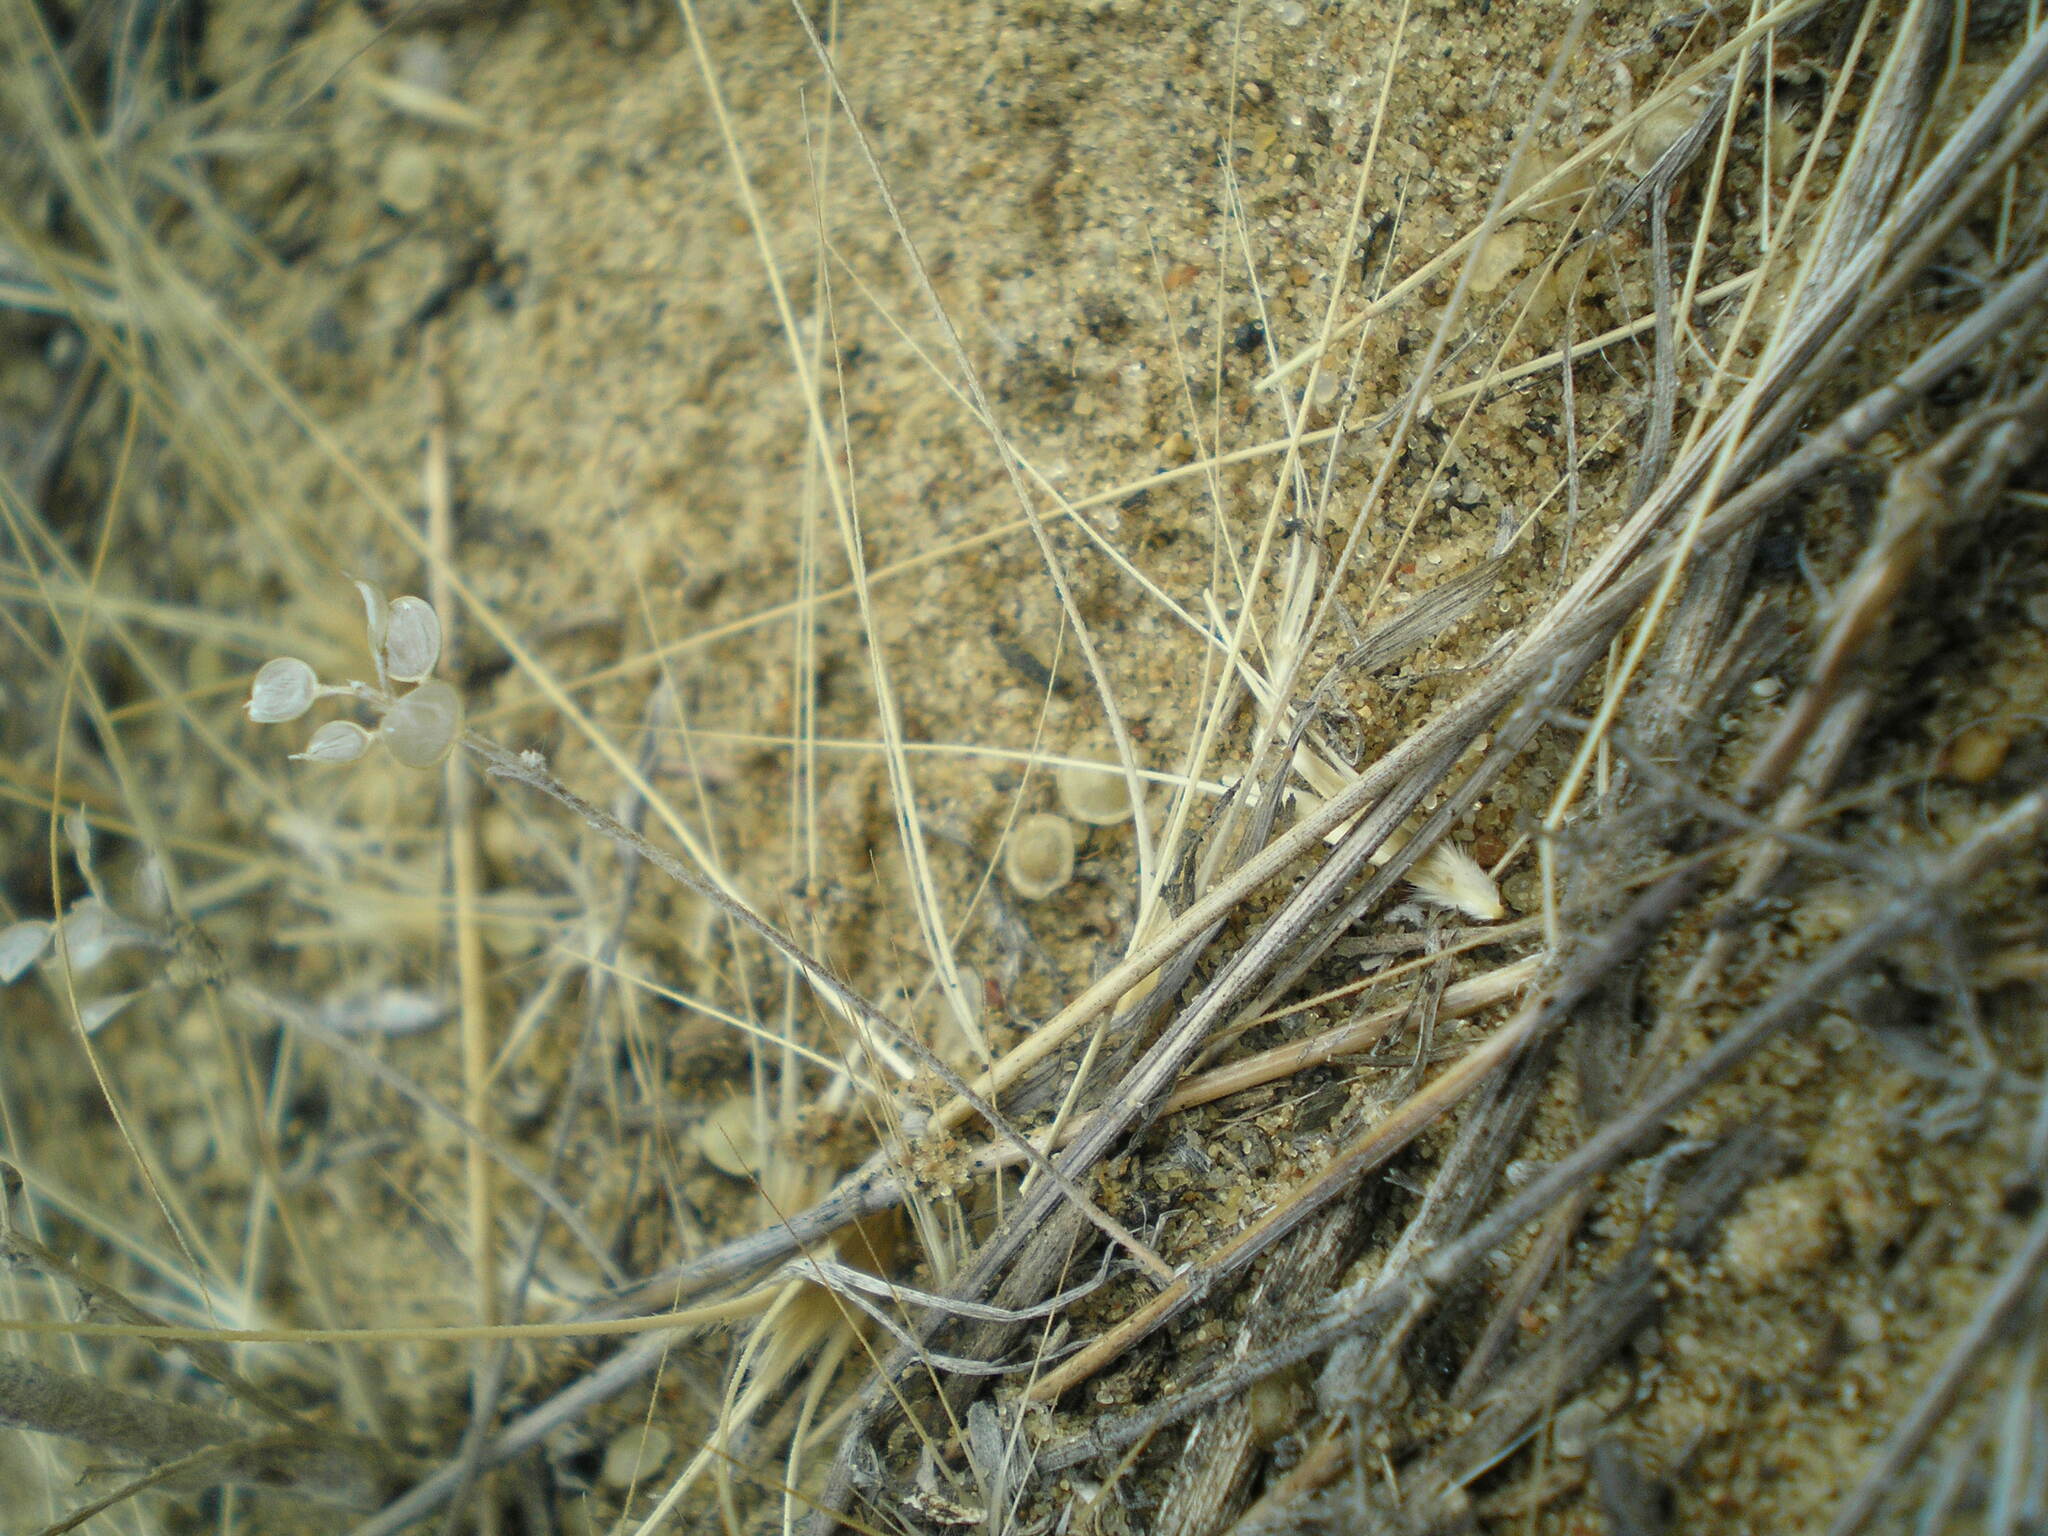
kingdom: Plantae
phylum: Tracheophyta
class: Magnoliopsida
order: Brassicales
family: Brassicaceae
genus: Alyssum
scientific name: Alyssum turkestanicum
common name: Desert alyssum
